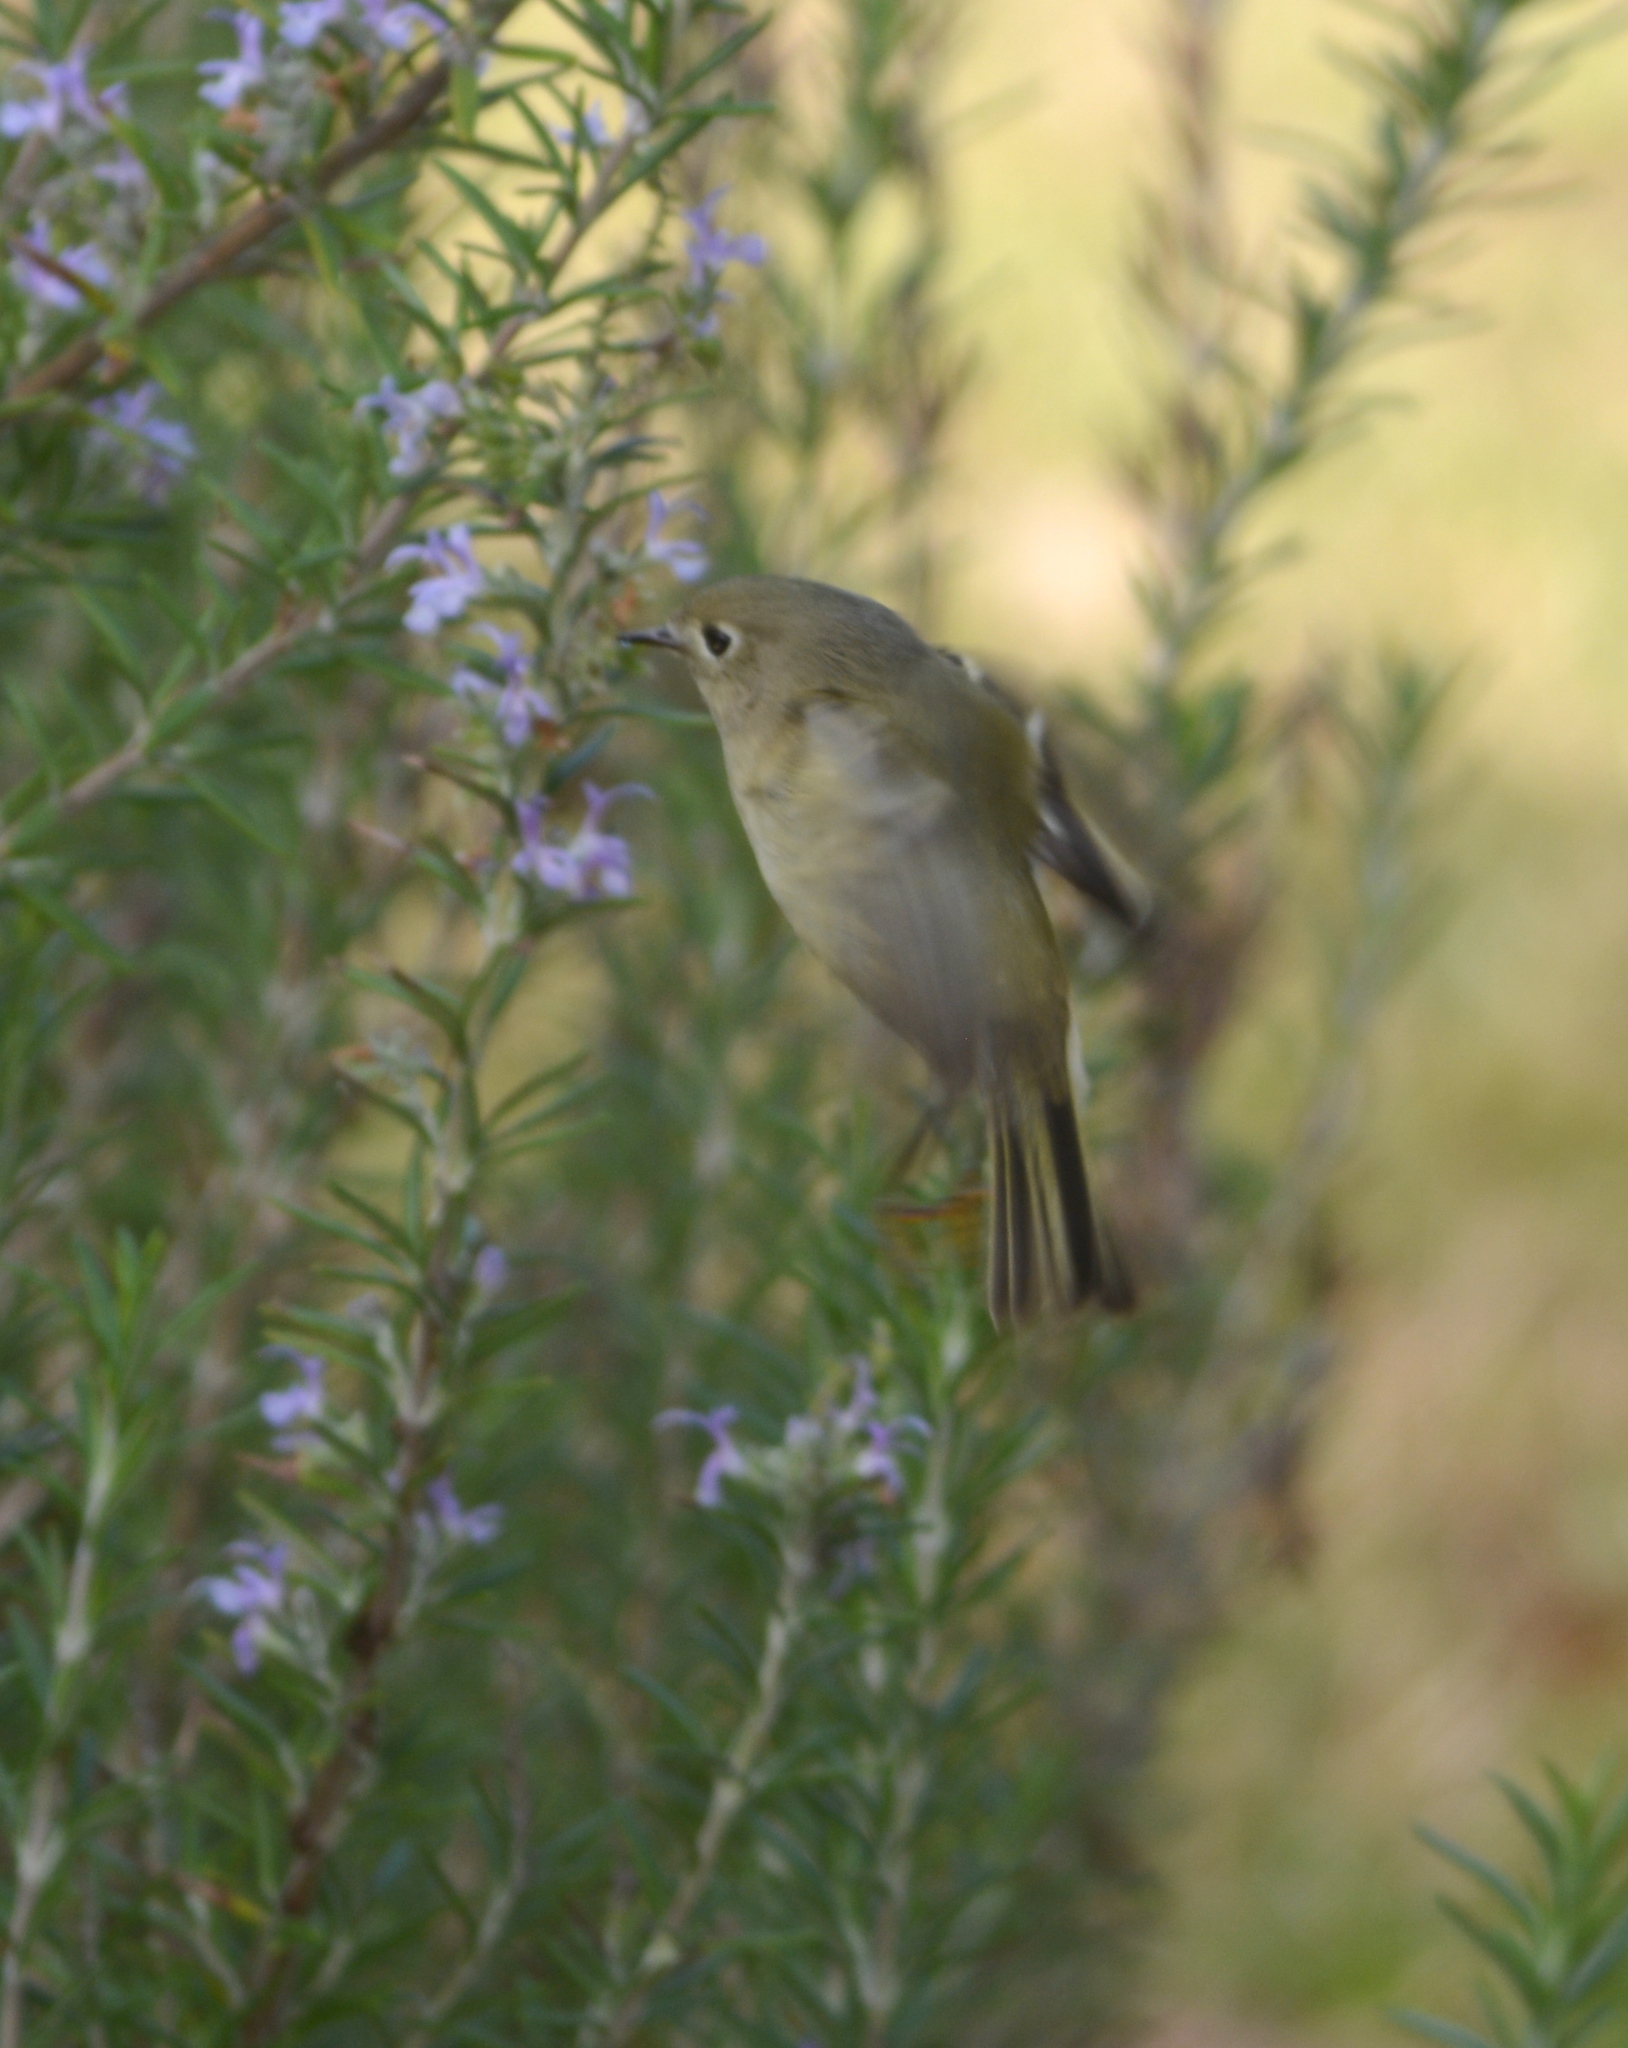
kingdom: Animalia
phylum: Chordata
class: Aves
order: Passeriformes
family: Regulidae
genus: Regulus
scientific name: Regulus calendula
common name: Ruby-crowned kinglet
